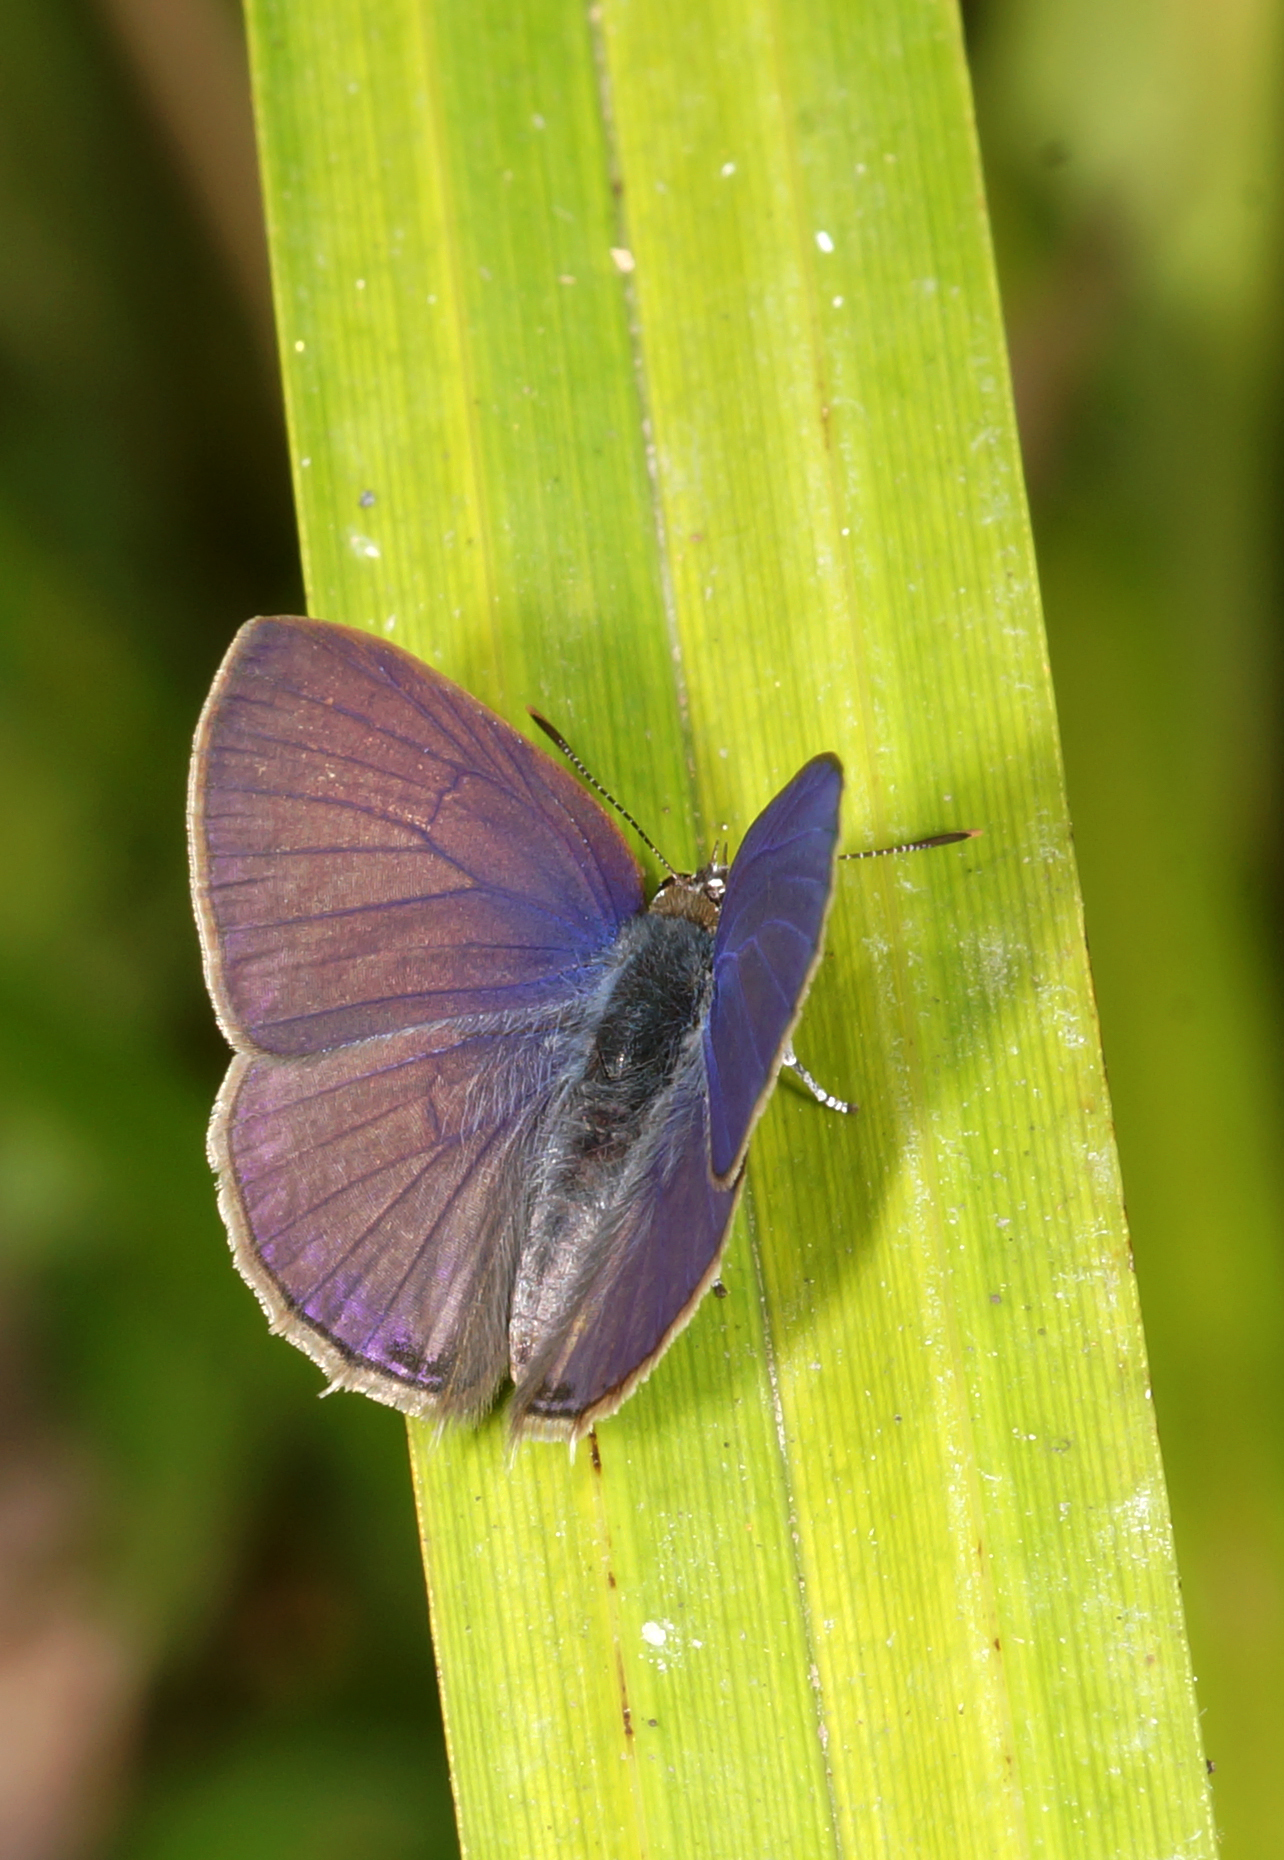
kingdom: Animalia
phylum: Arthropoda
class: Insecta
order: Lepidoptera
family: Lycaenidae
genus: Anthene
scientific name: Anthene emolus
